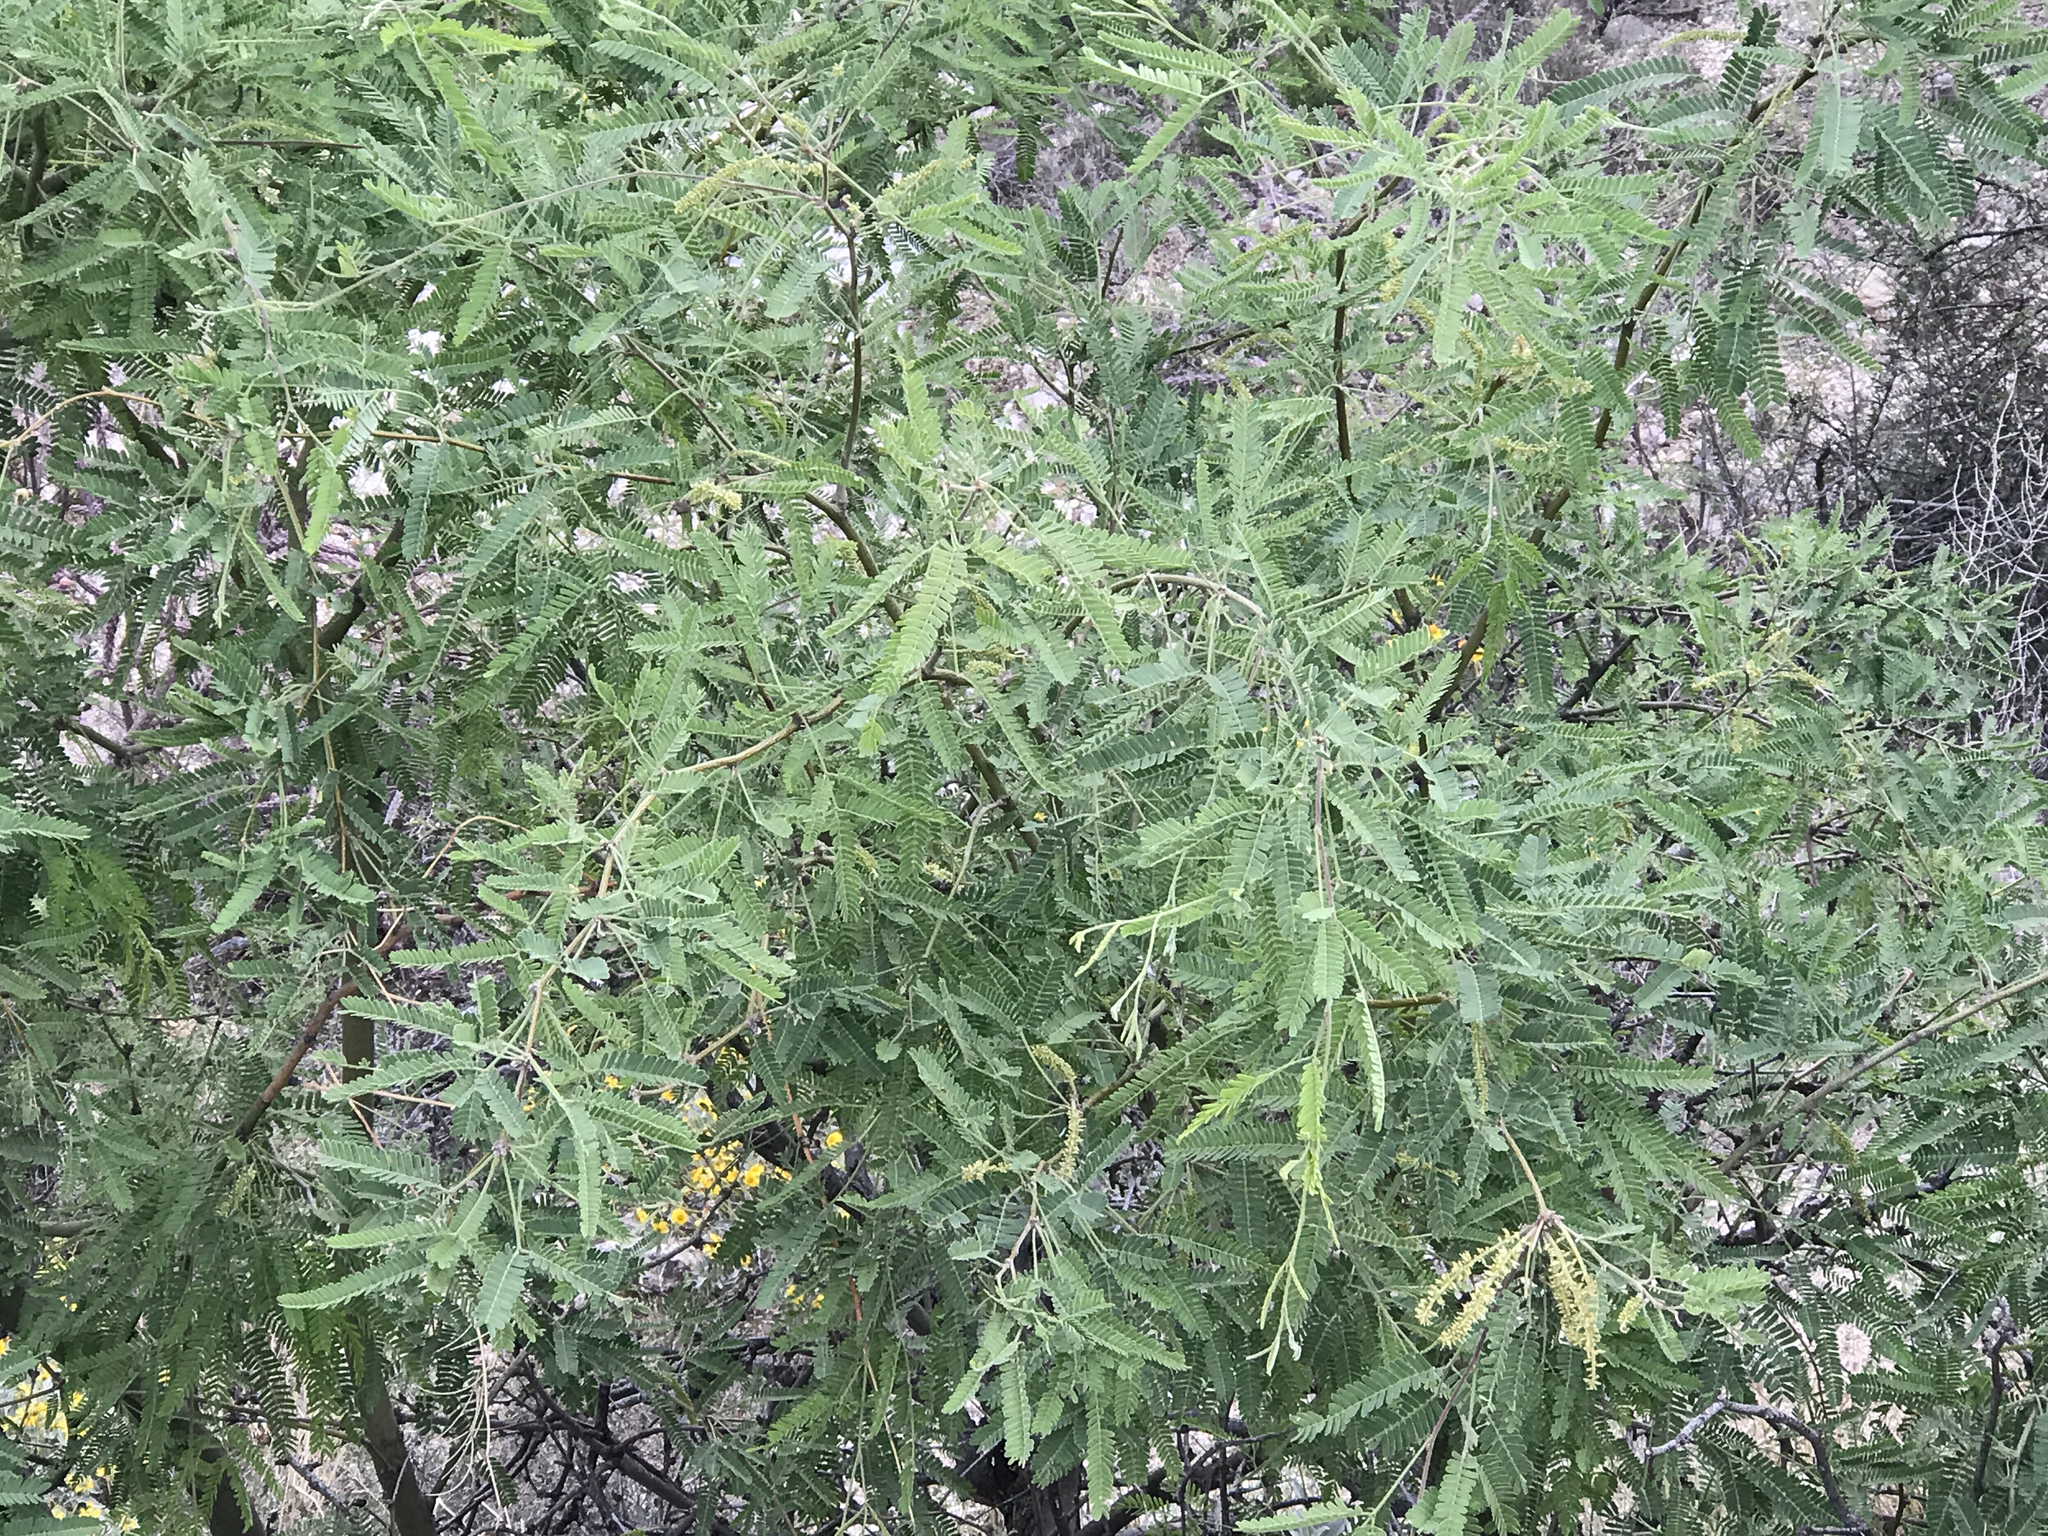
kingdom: Plantae
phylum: Tracheophyta
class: Magnoliopsida
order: Fabales
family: Fabaceae
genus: Prosopis
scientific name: Prosopis velutina
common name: Velvet mesquite
